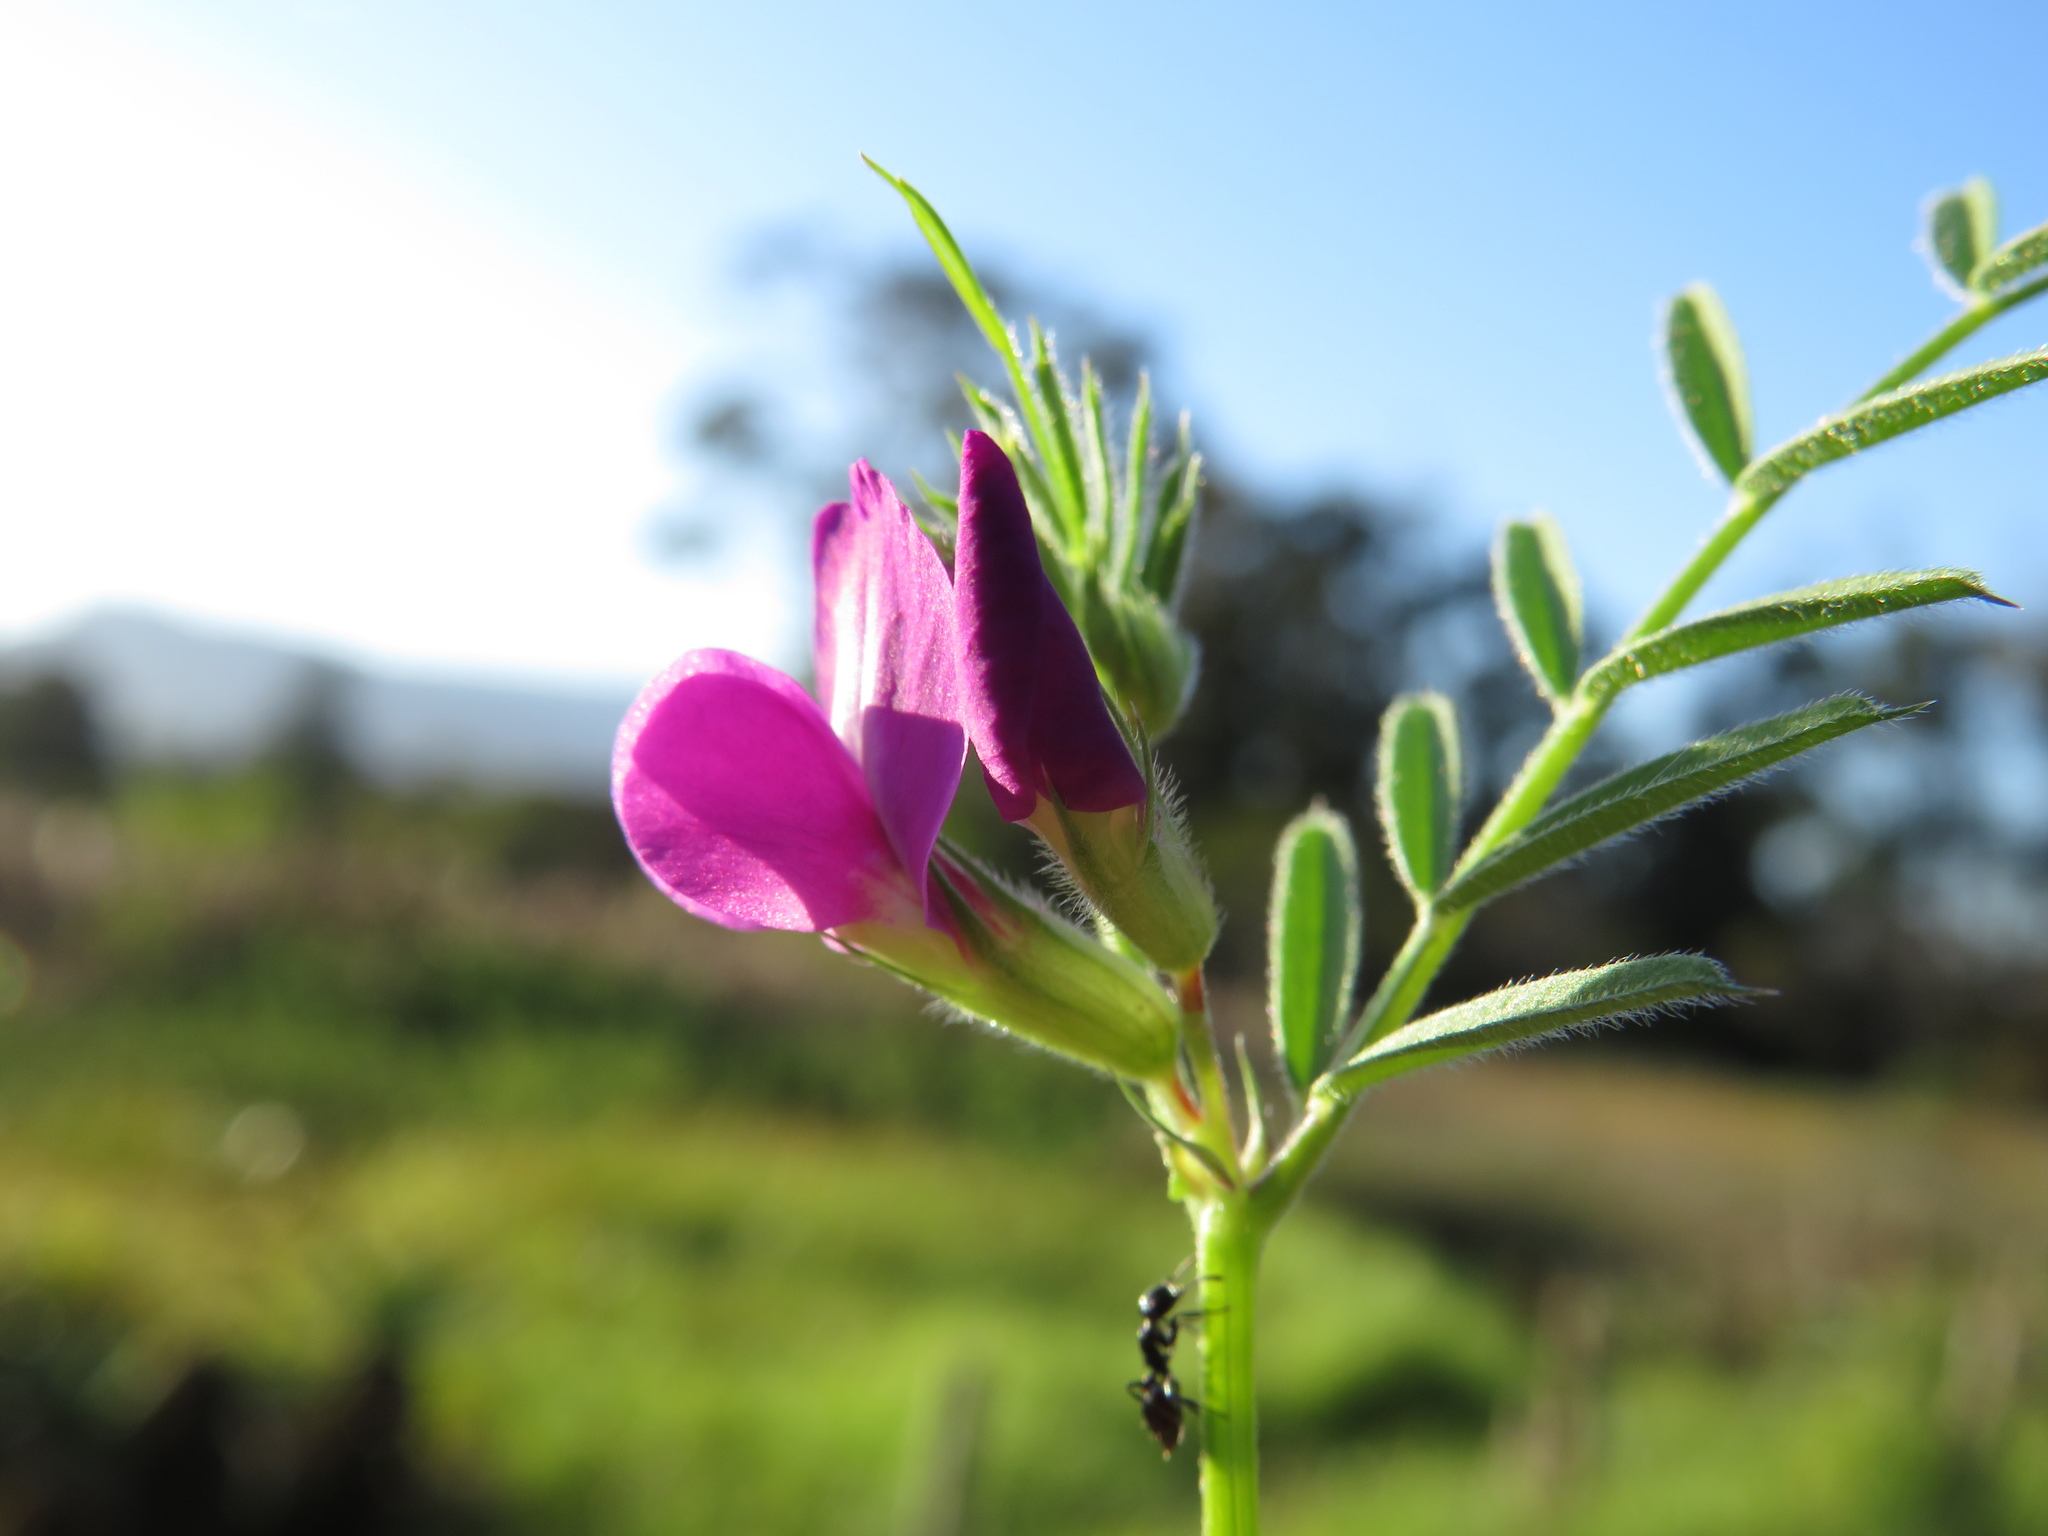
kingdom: Plantae
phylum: Tracheophyta
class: Magnoliopsida
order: Fabales
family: Fabaceae
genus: Vicia
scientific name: Vicia sativa
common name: Garden vetch
